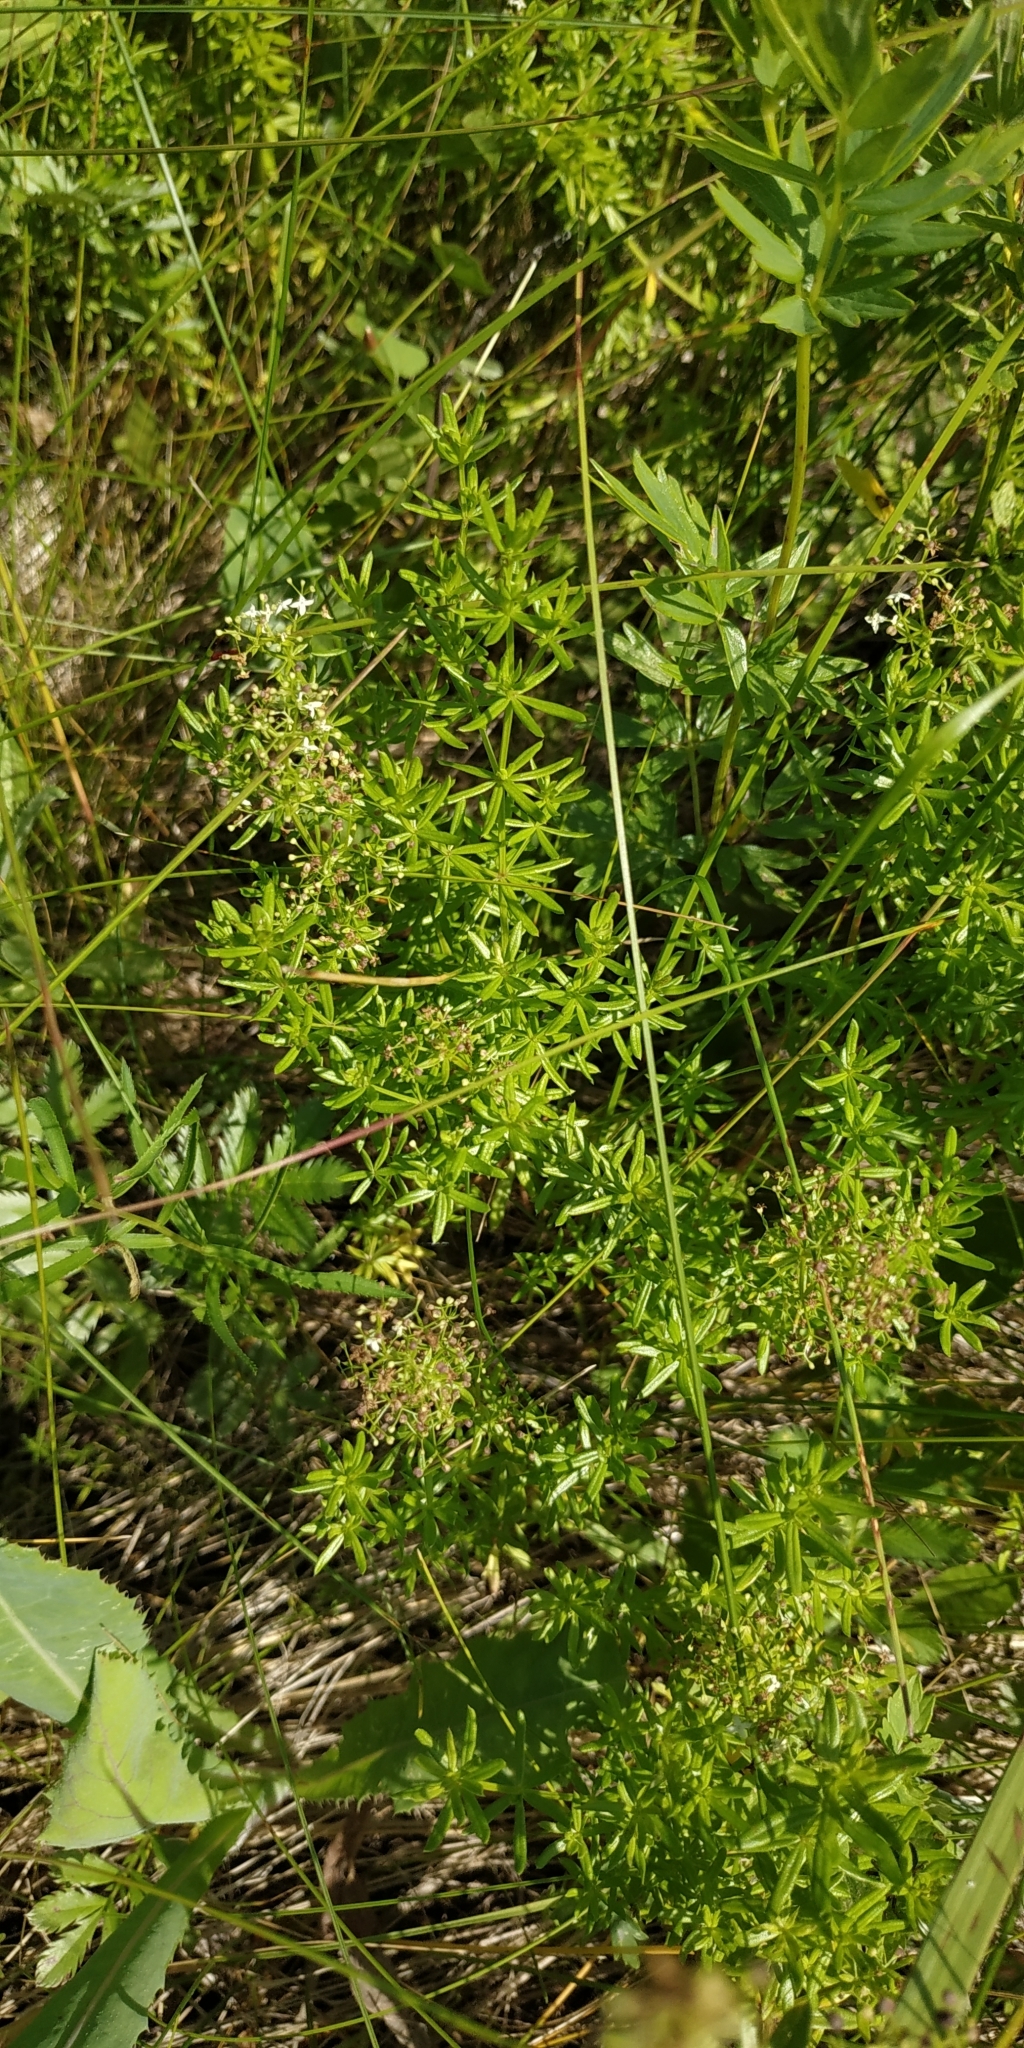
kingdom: Plantae
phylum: Tracheophyta
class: Magnoliopsida
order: Gentianales
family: Rubiaceae
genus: Galium
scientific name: Galium mollugo
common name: Hedge bedstraw
